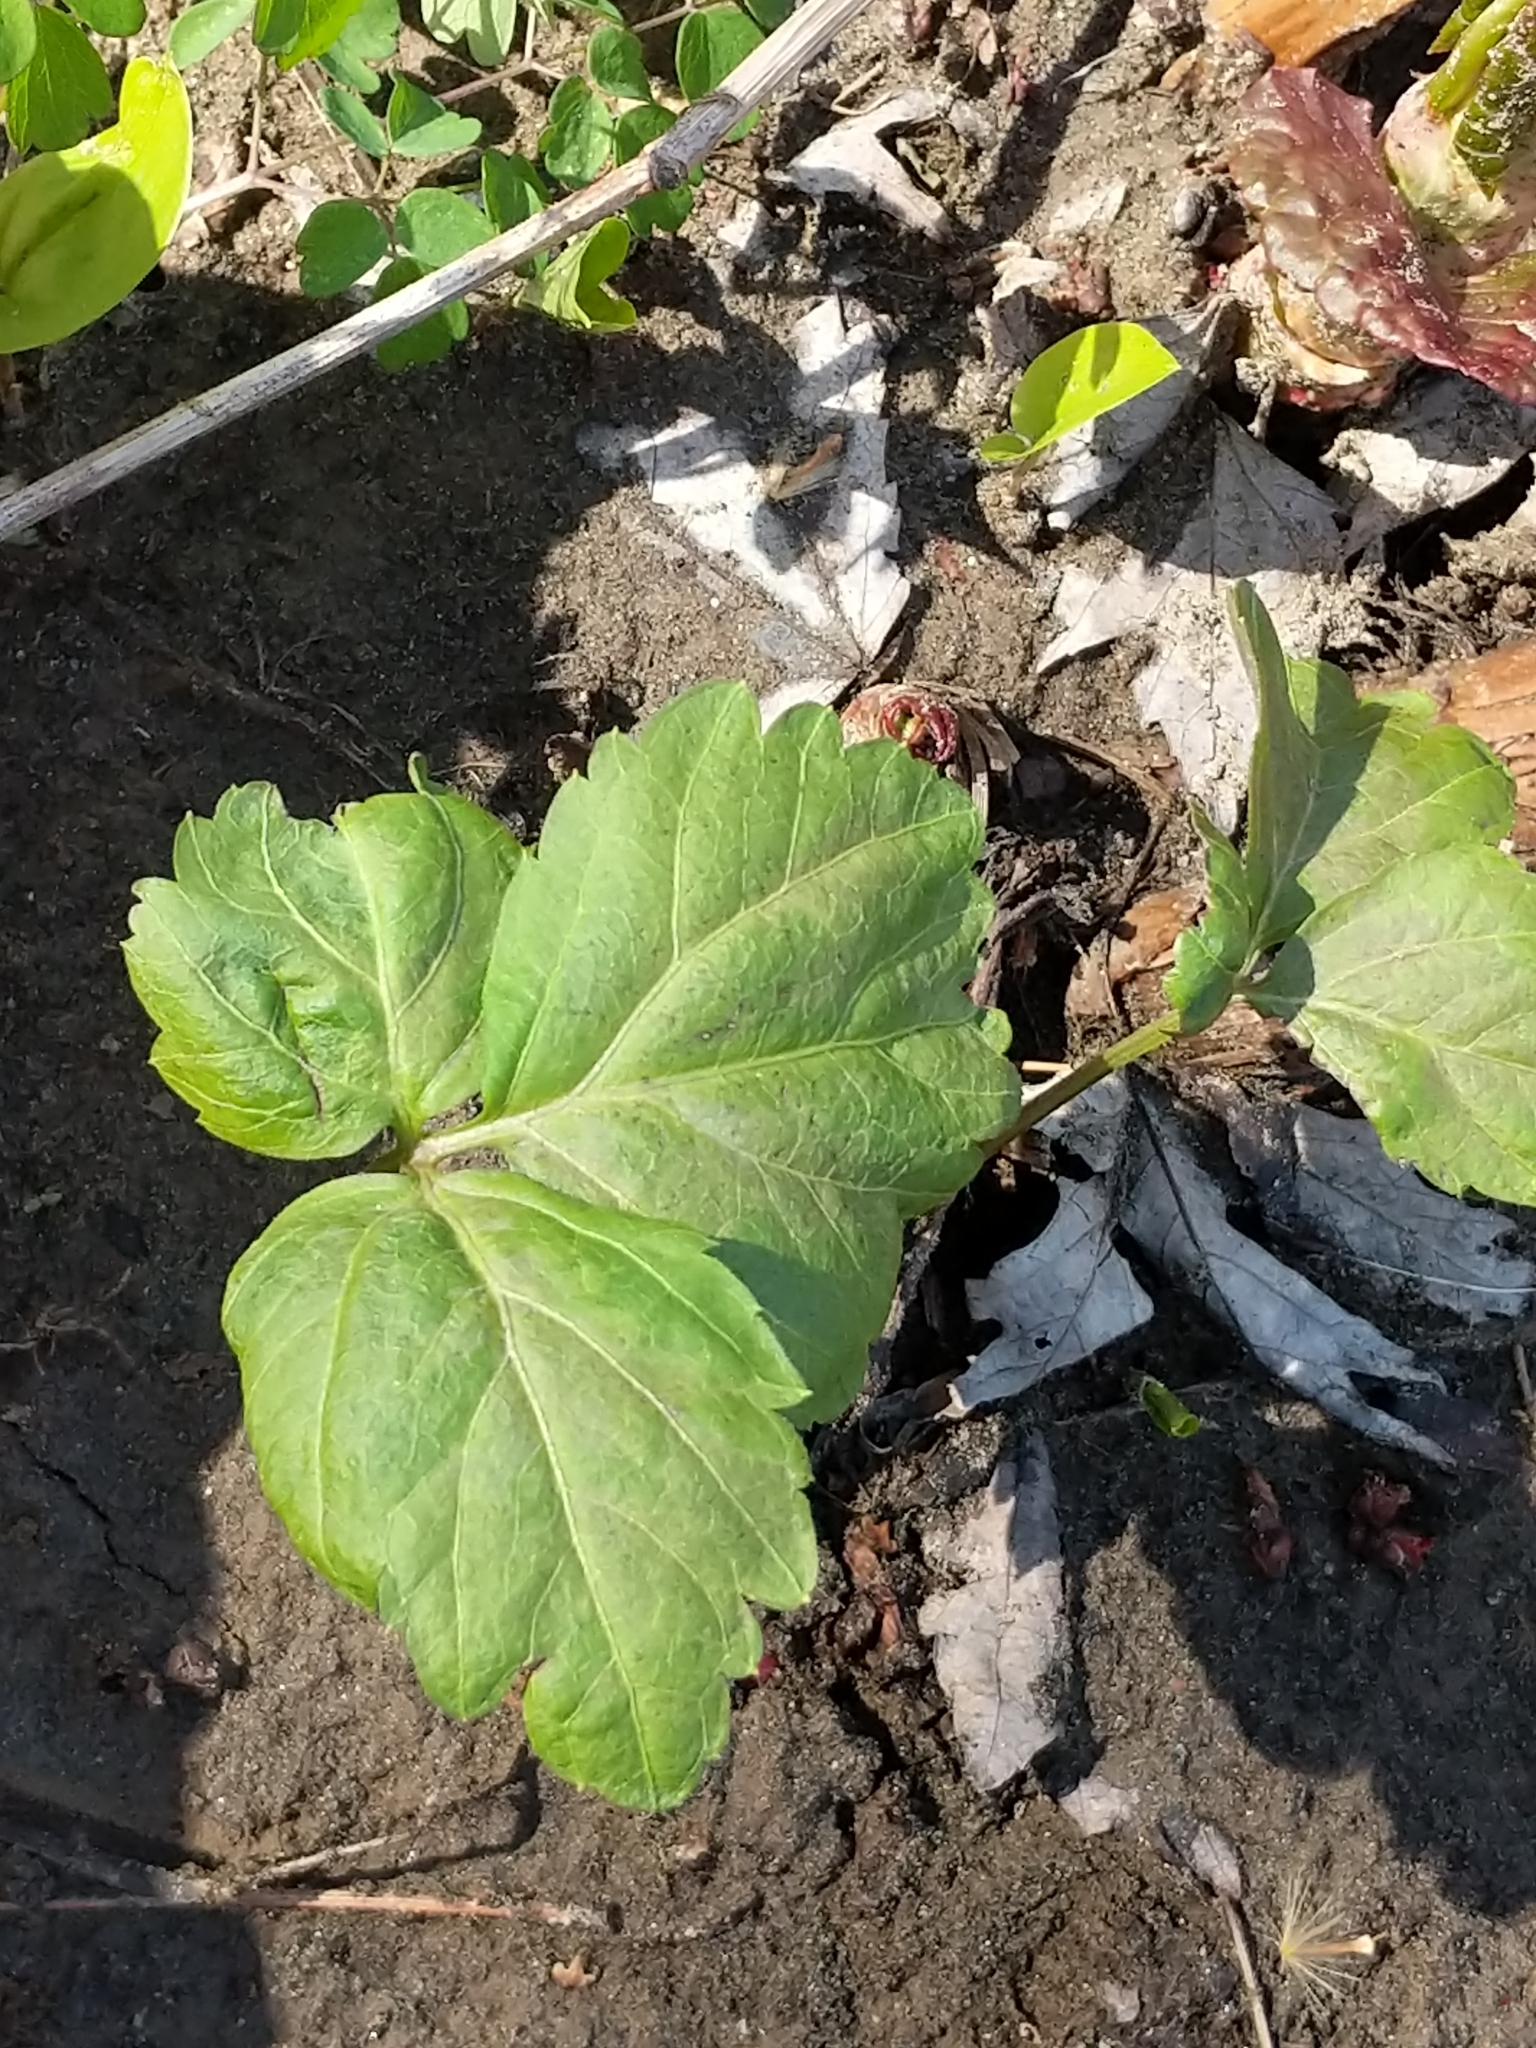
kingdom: Plantae
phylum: Tracheophyta
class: Magnoliopsida
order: Brassicales
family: Brassicaceae
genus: Cardamine
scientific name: Cardamine diphylla
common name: Broad-leaved toothwort
